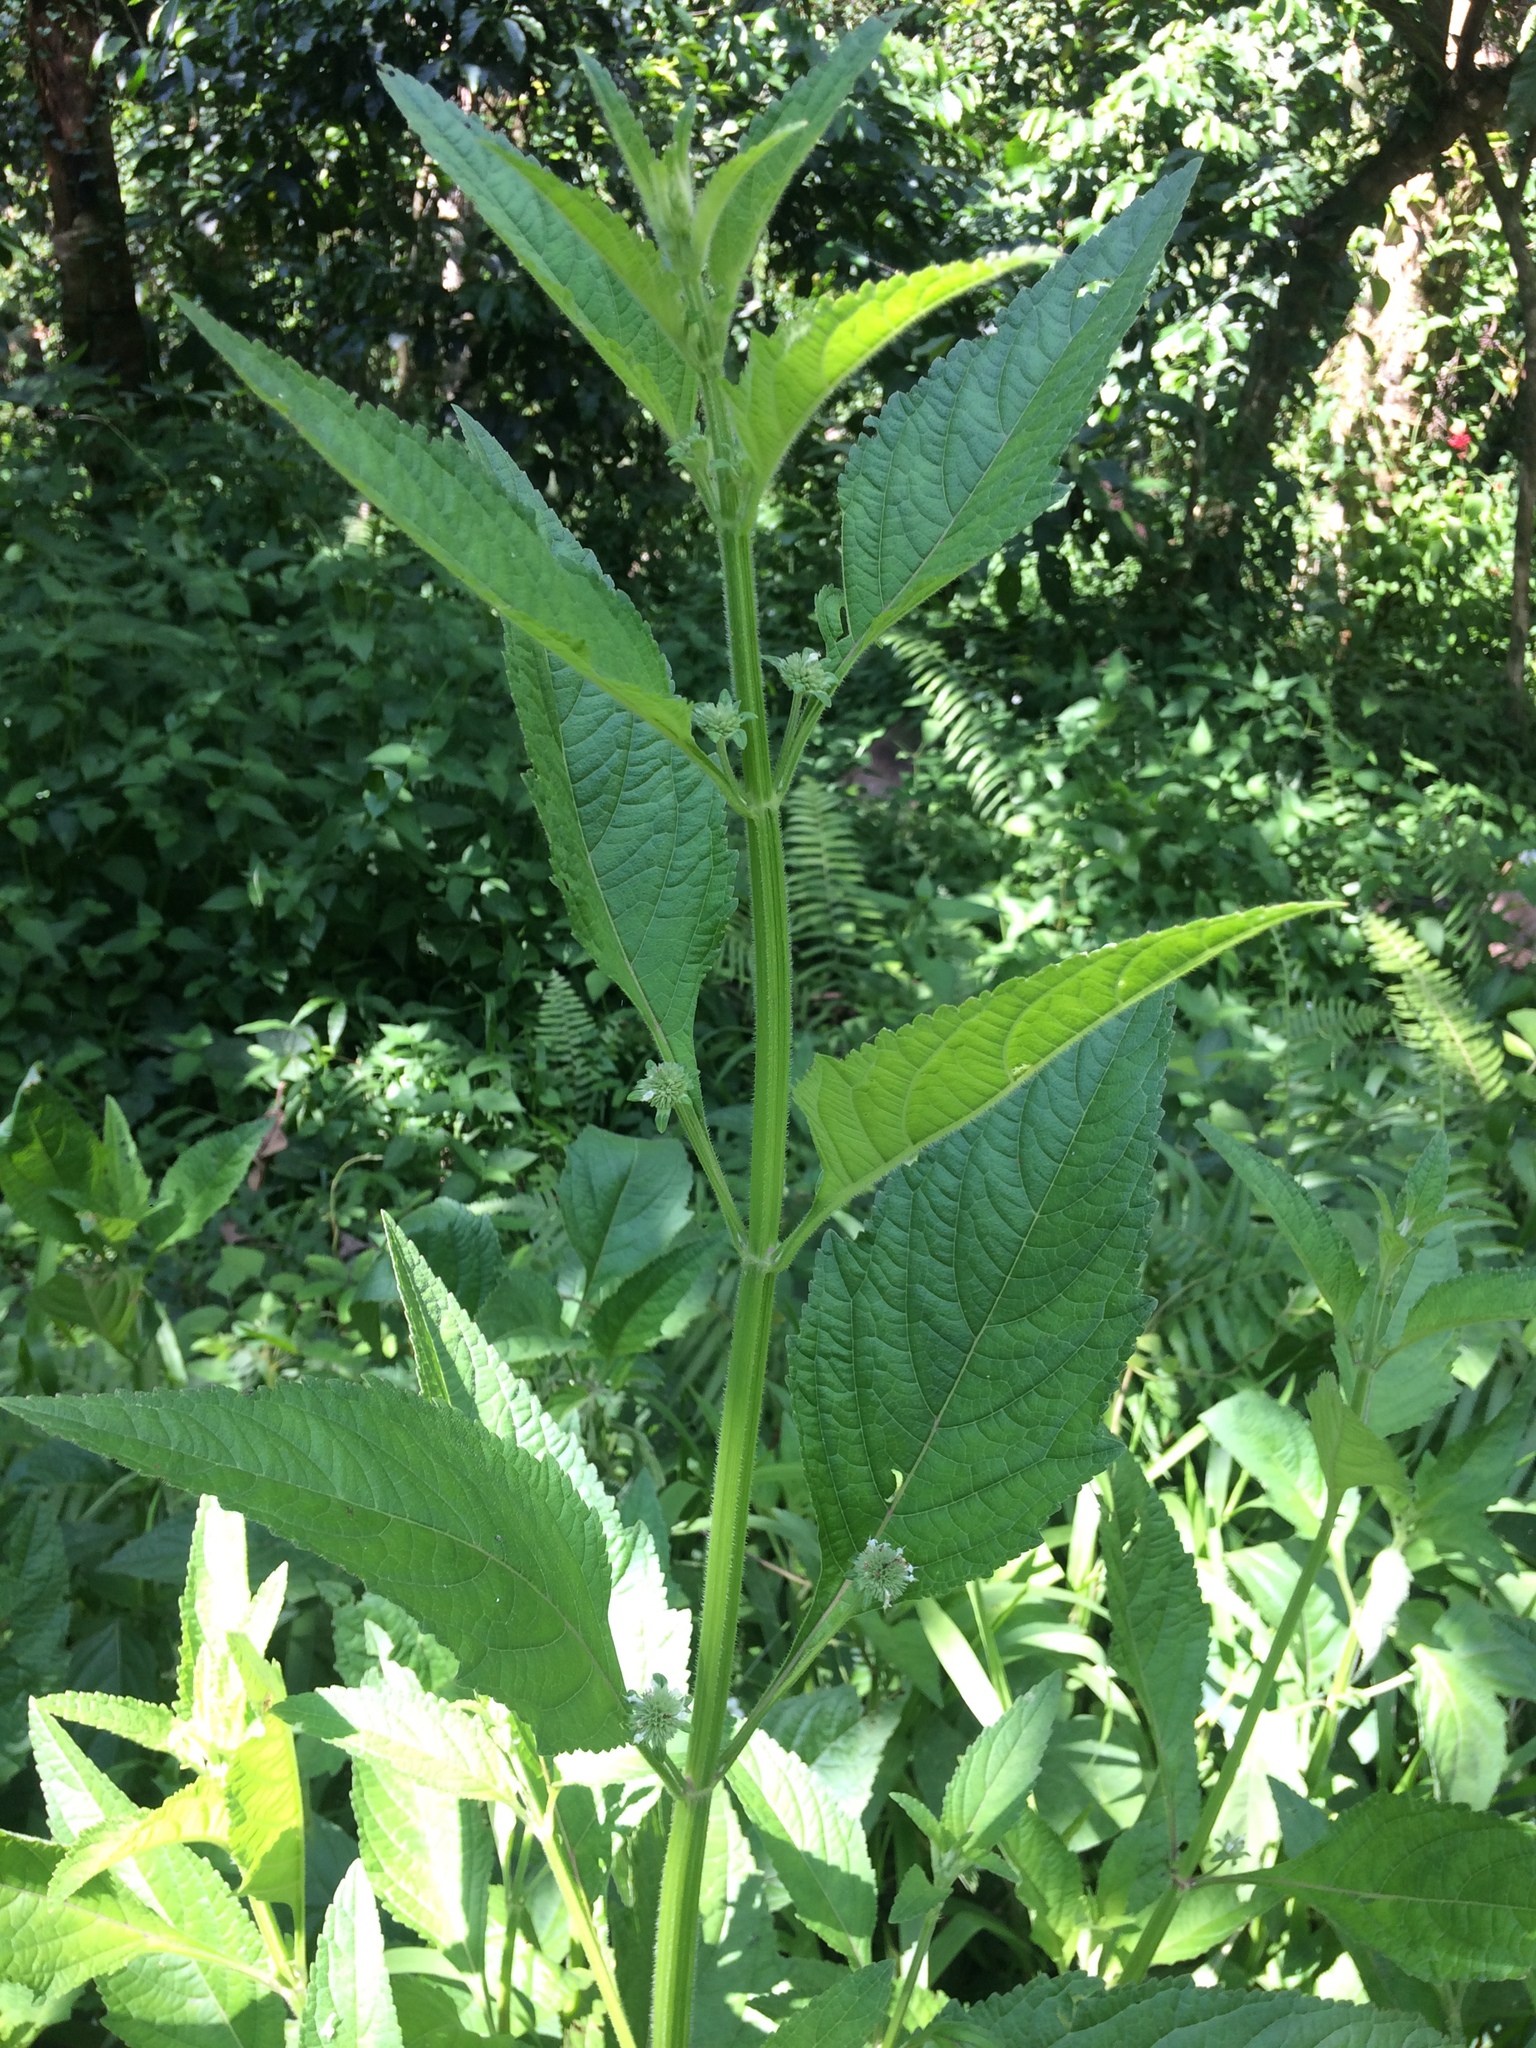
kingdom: Plantae
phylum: Tracheophyta
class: Magnoliopsida
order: Lamiales
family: Lamiaceae
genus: Hyptis
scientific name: Hyptis capitata
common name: False ironwort
